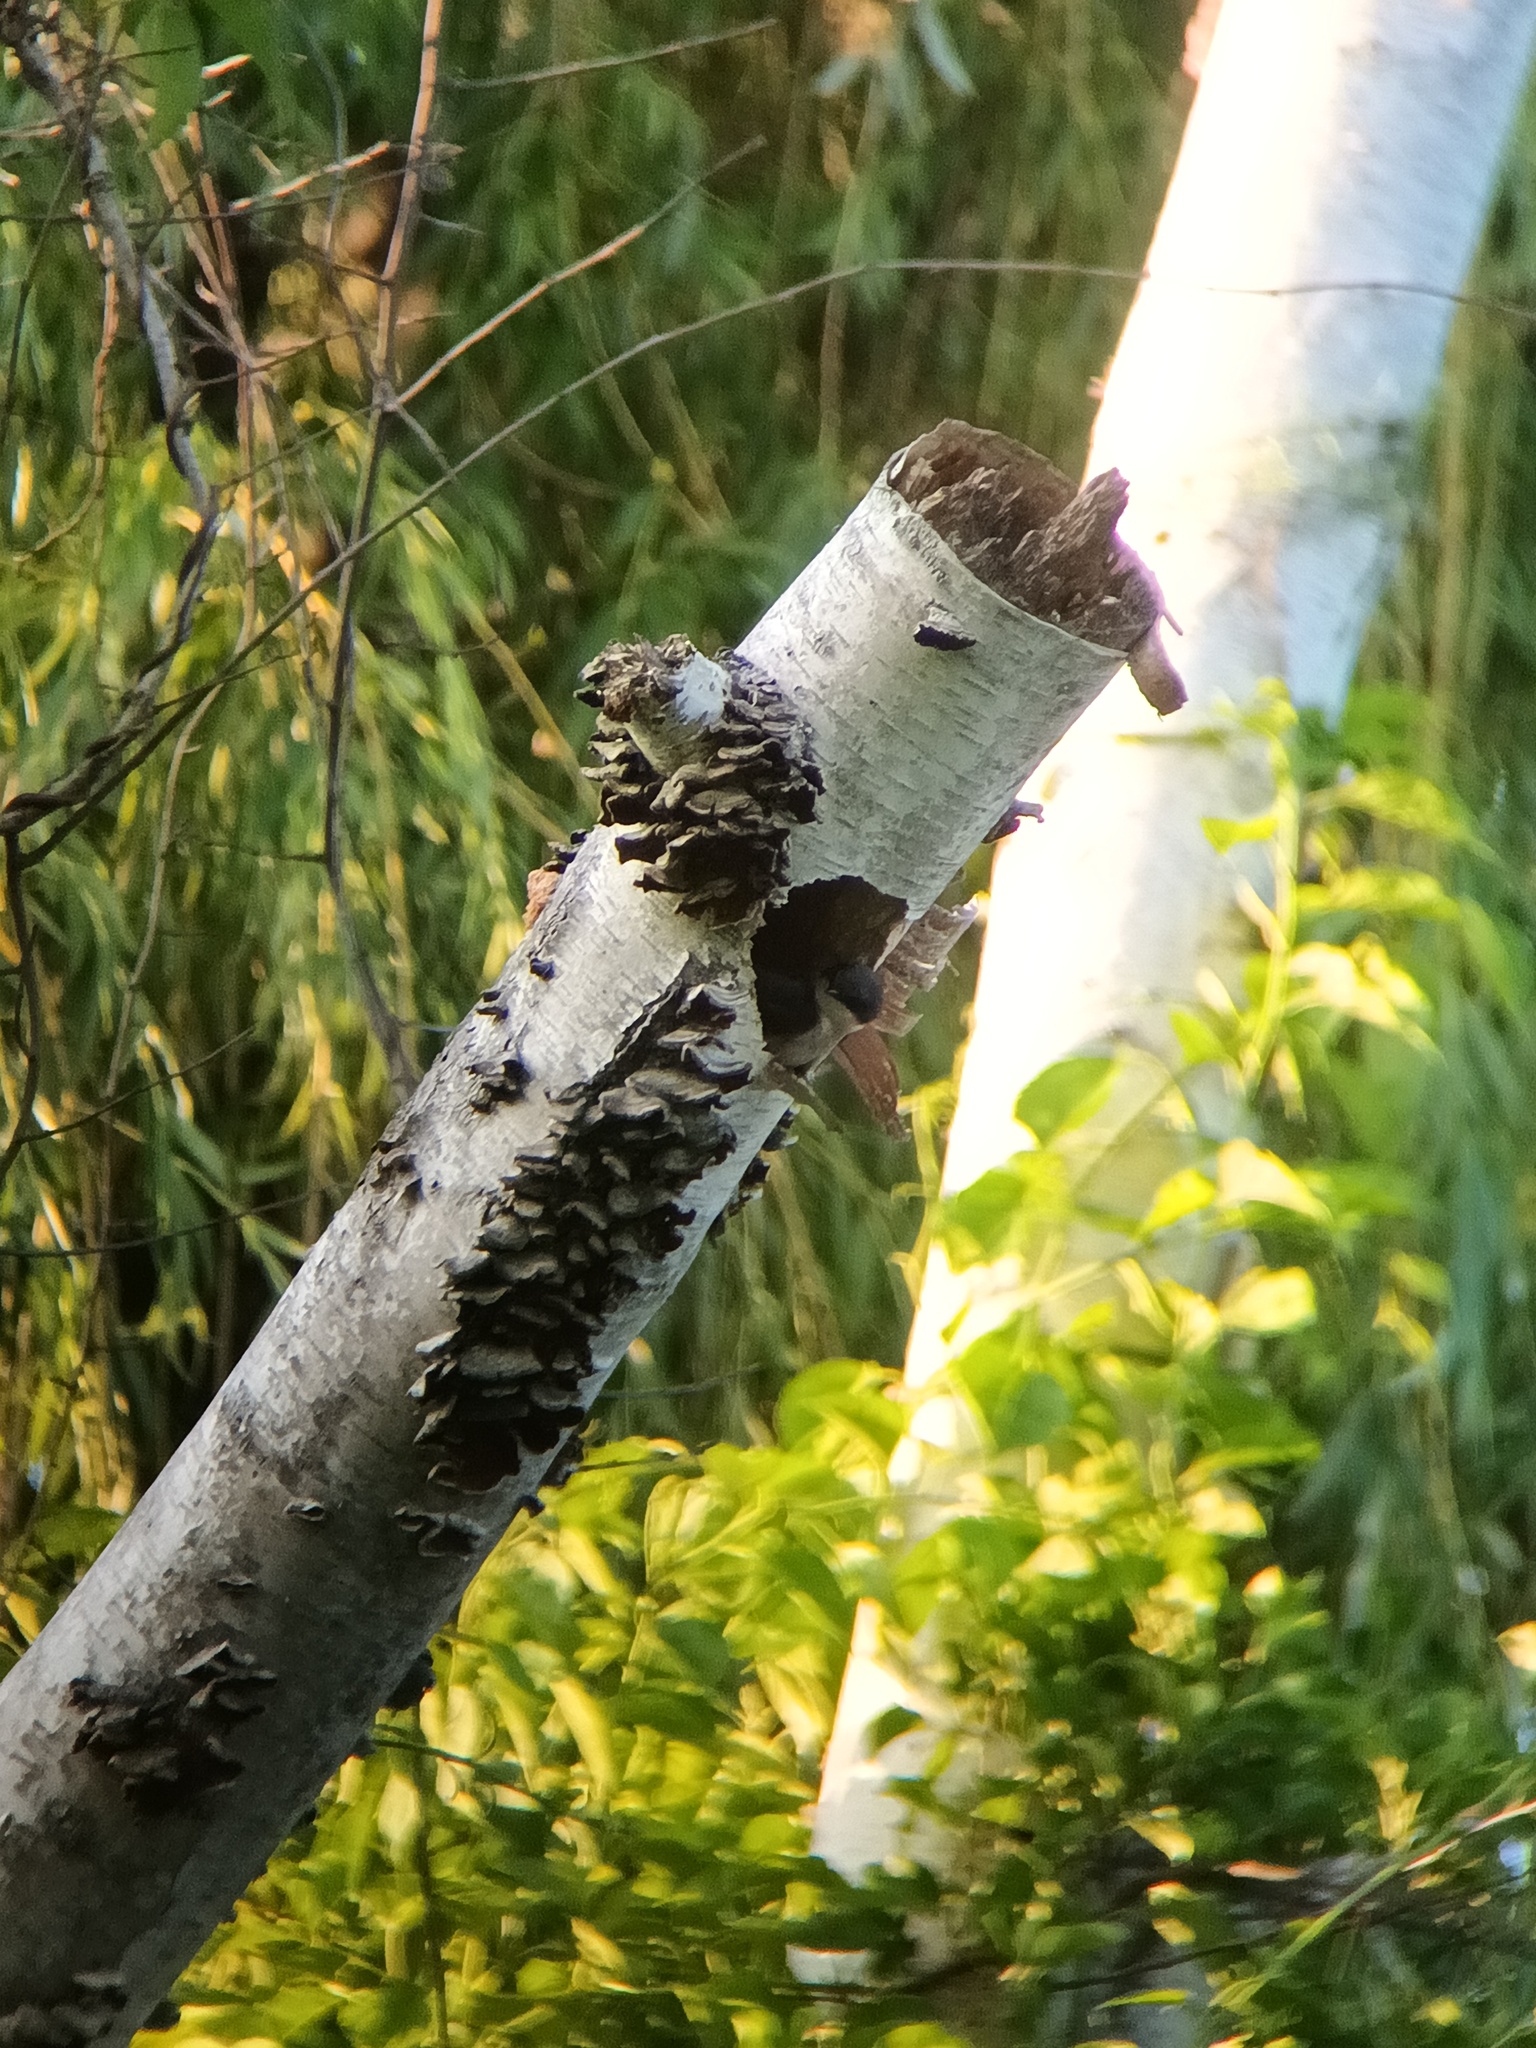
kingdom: Animalia
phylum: Chordata
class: Aves
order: Passeriformes
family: Hirundinidae
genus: Tachycineta
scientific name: Tachycineta bicolor
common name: Tree swallow
